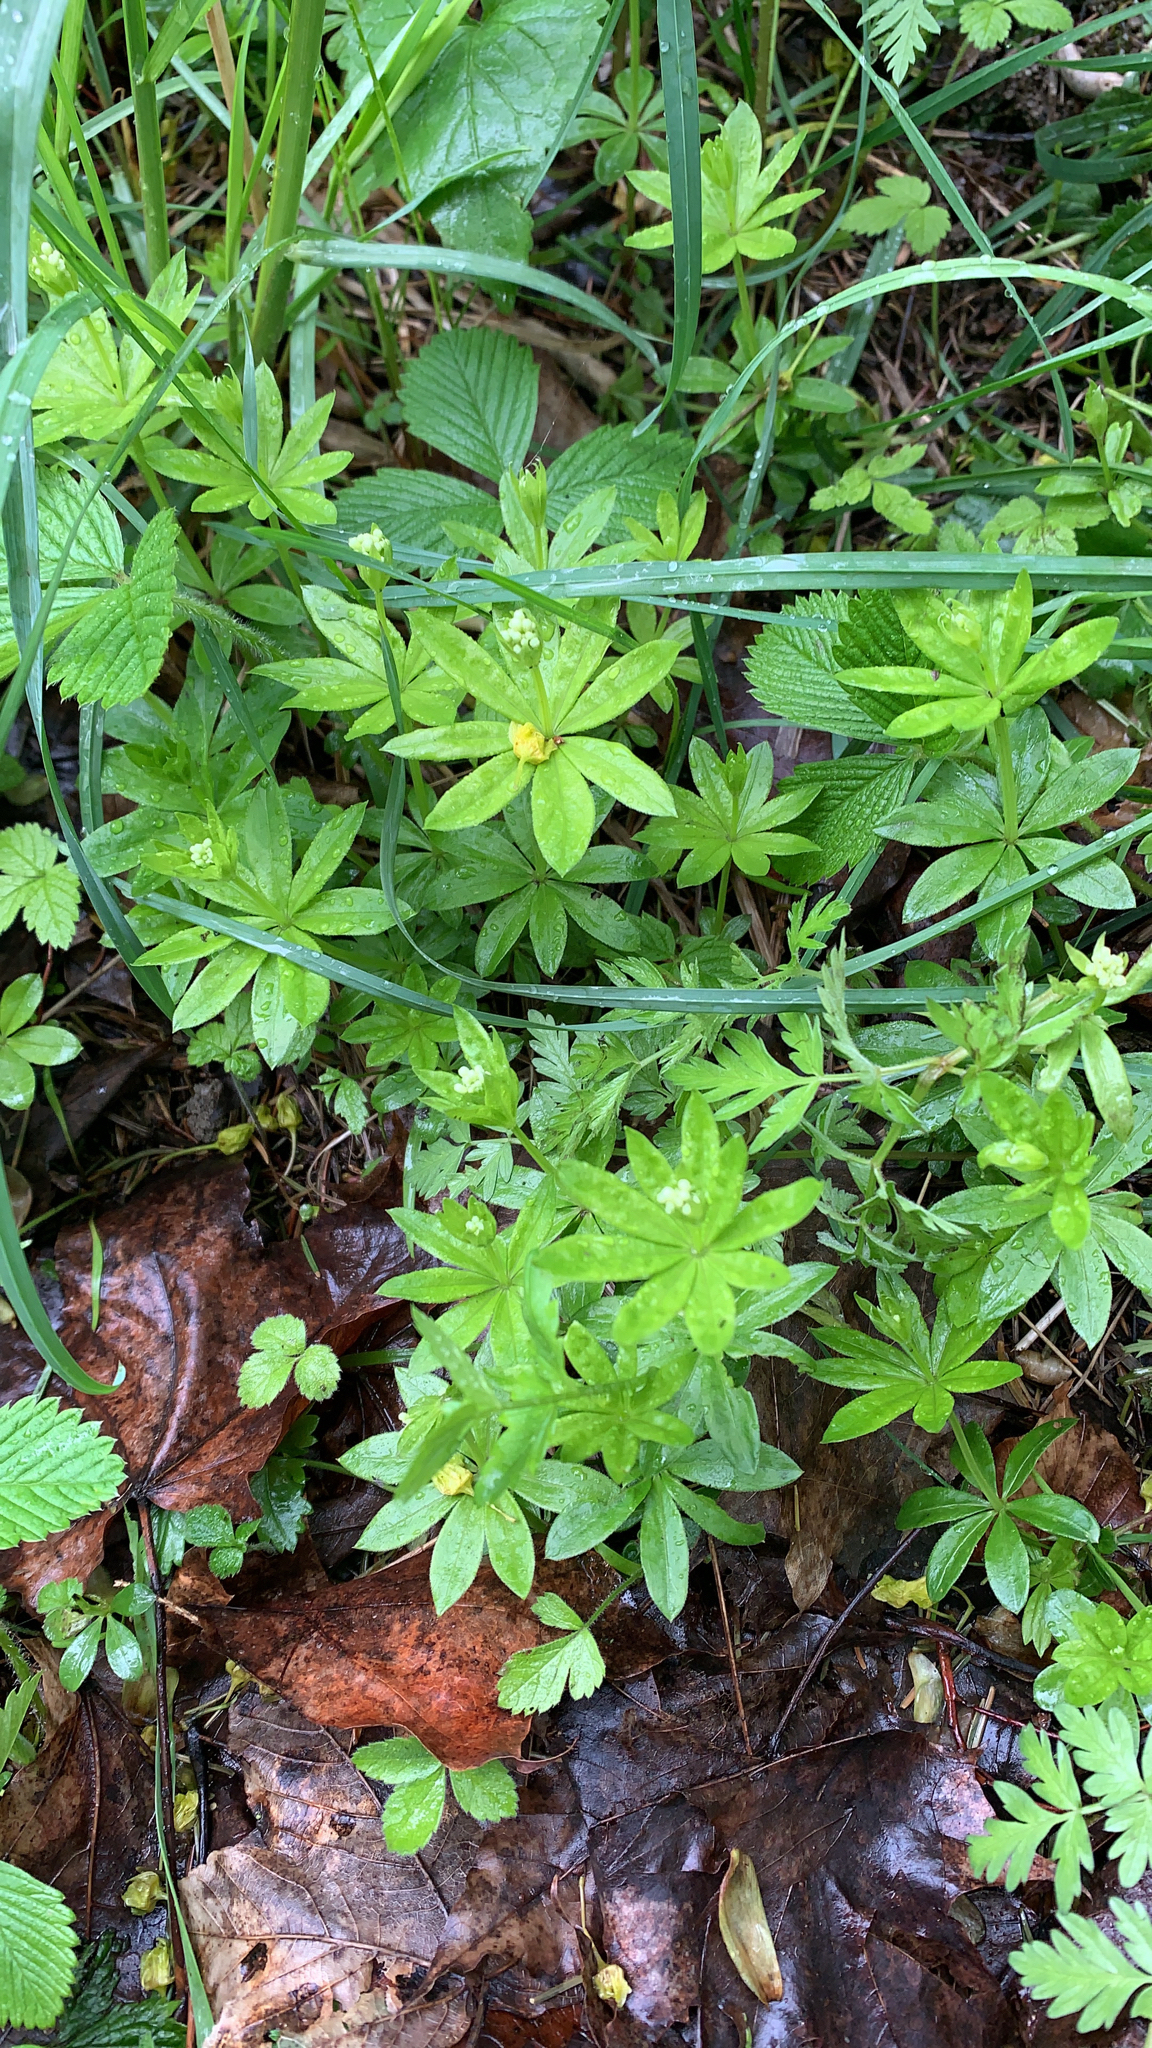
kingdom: Plantae
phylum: Tracheophyta
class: Magnoliopsida
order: Gentianales
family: Rubiaceae
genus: Galium
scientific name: Galium odoratum
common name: Sweet woodruff
